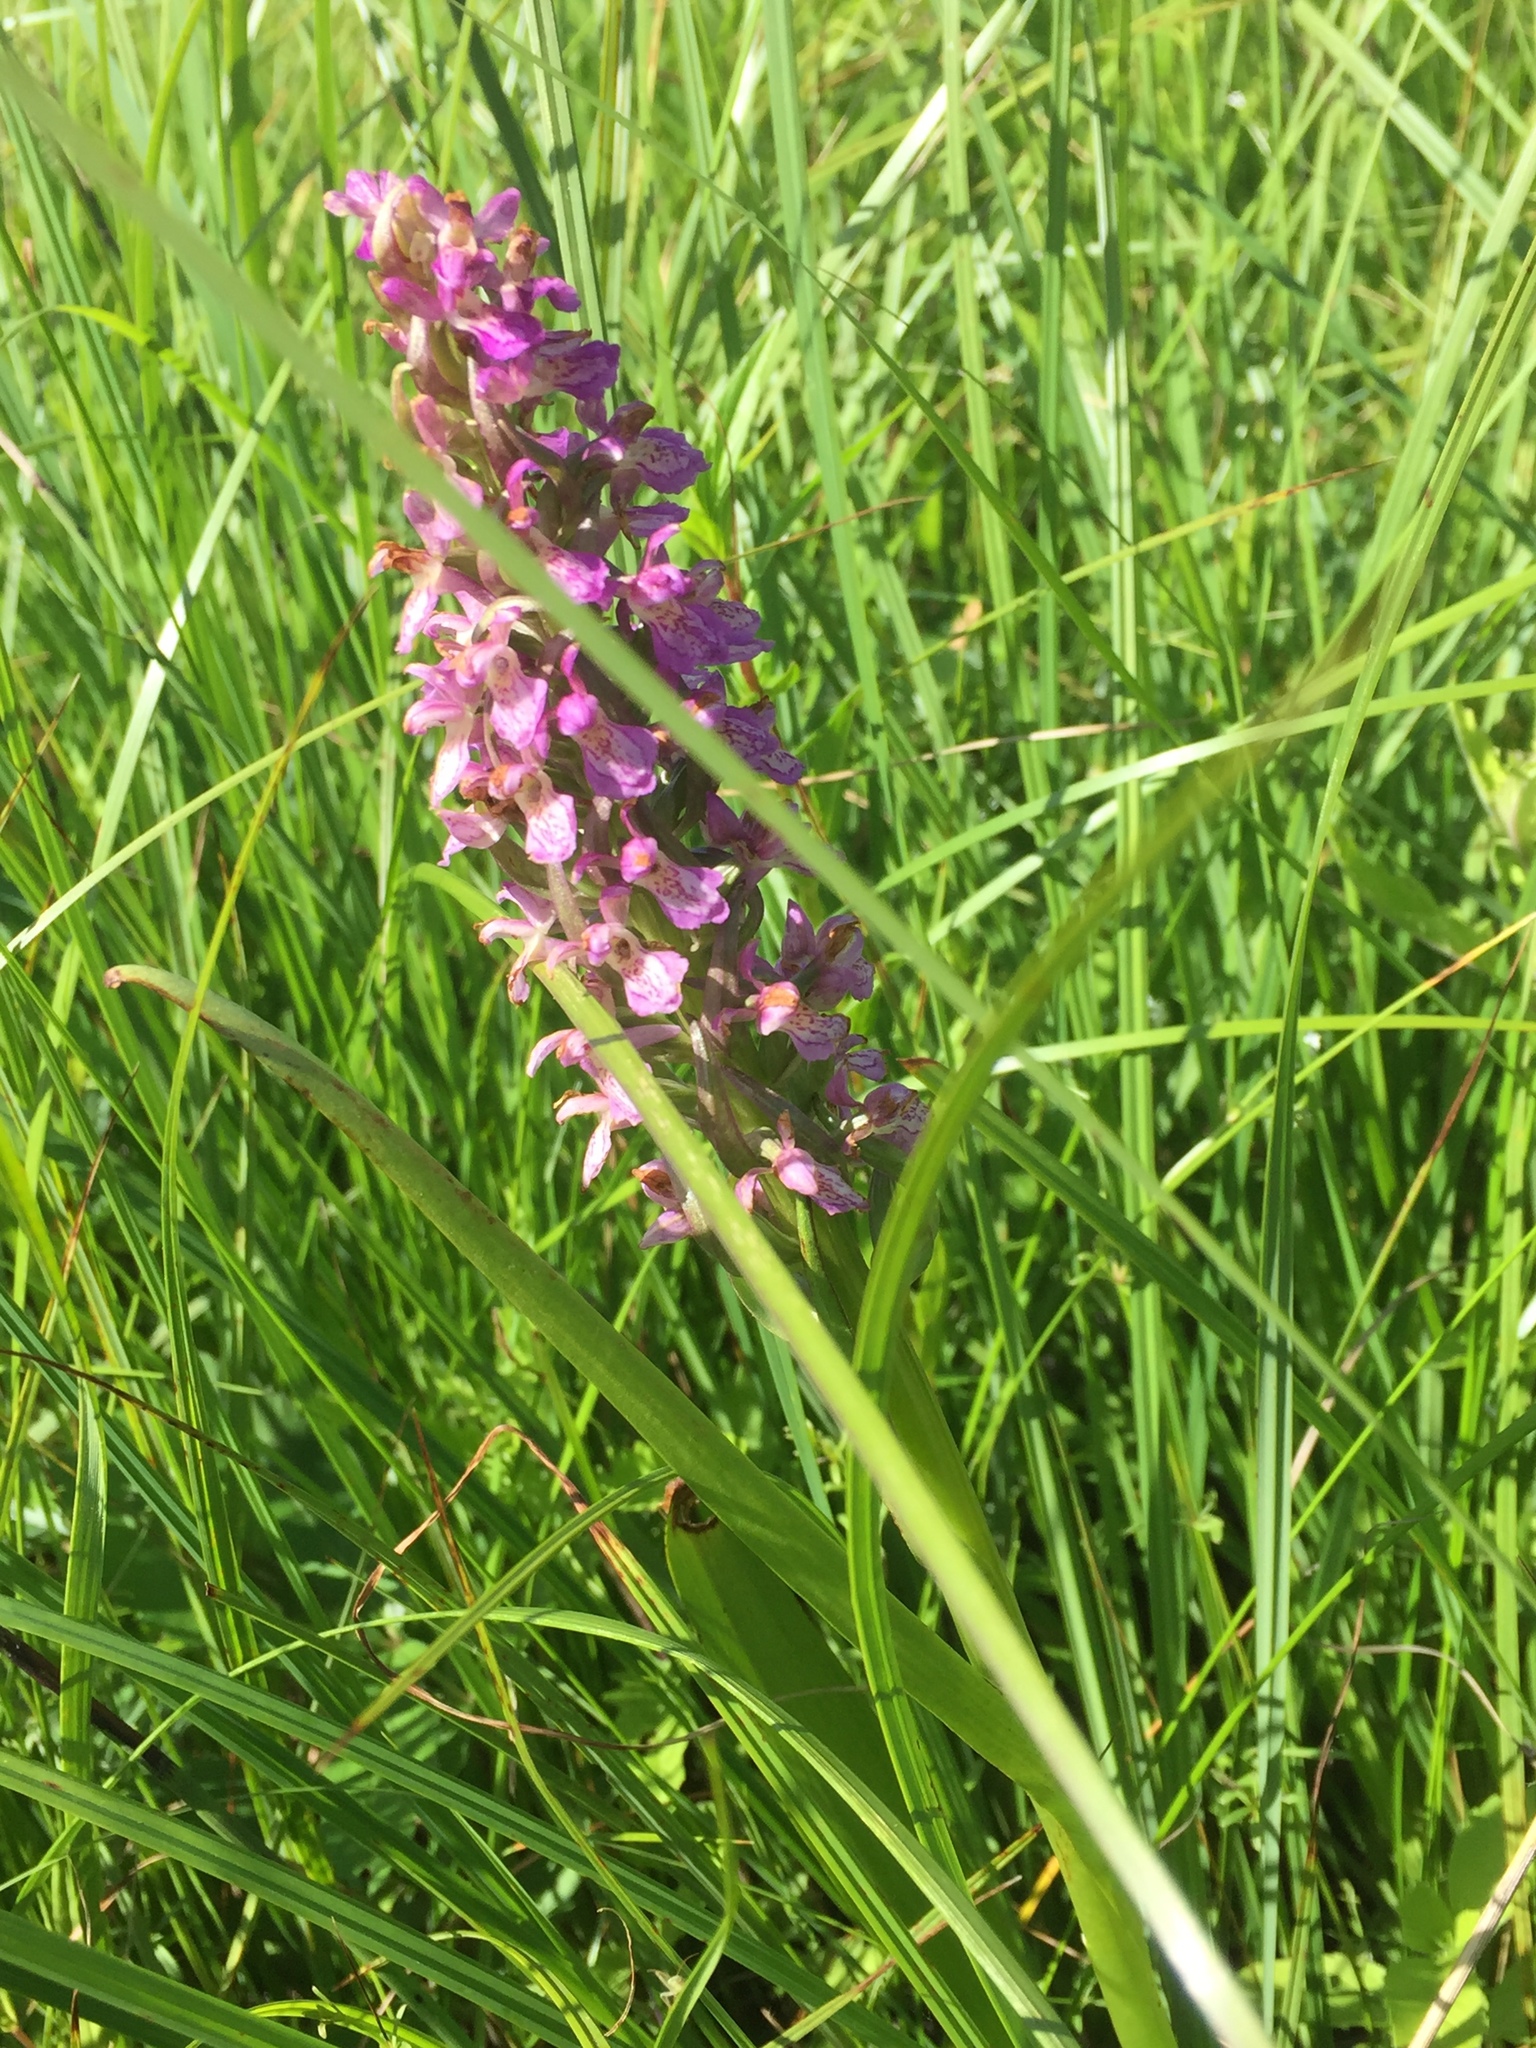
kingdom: Plantae
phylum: Tracheophyta
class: Liliopsida
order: Asparagales
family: Orchidaceae
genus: Dactylorhiza
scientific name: Dactylorhiza incarnata
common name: Early marsh-orchid
